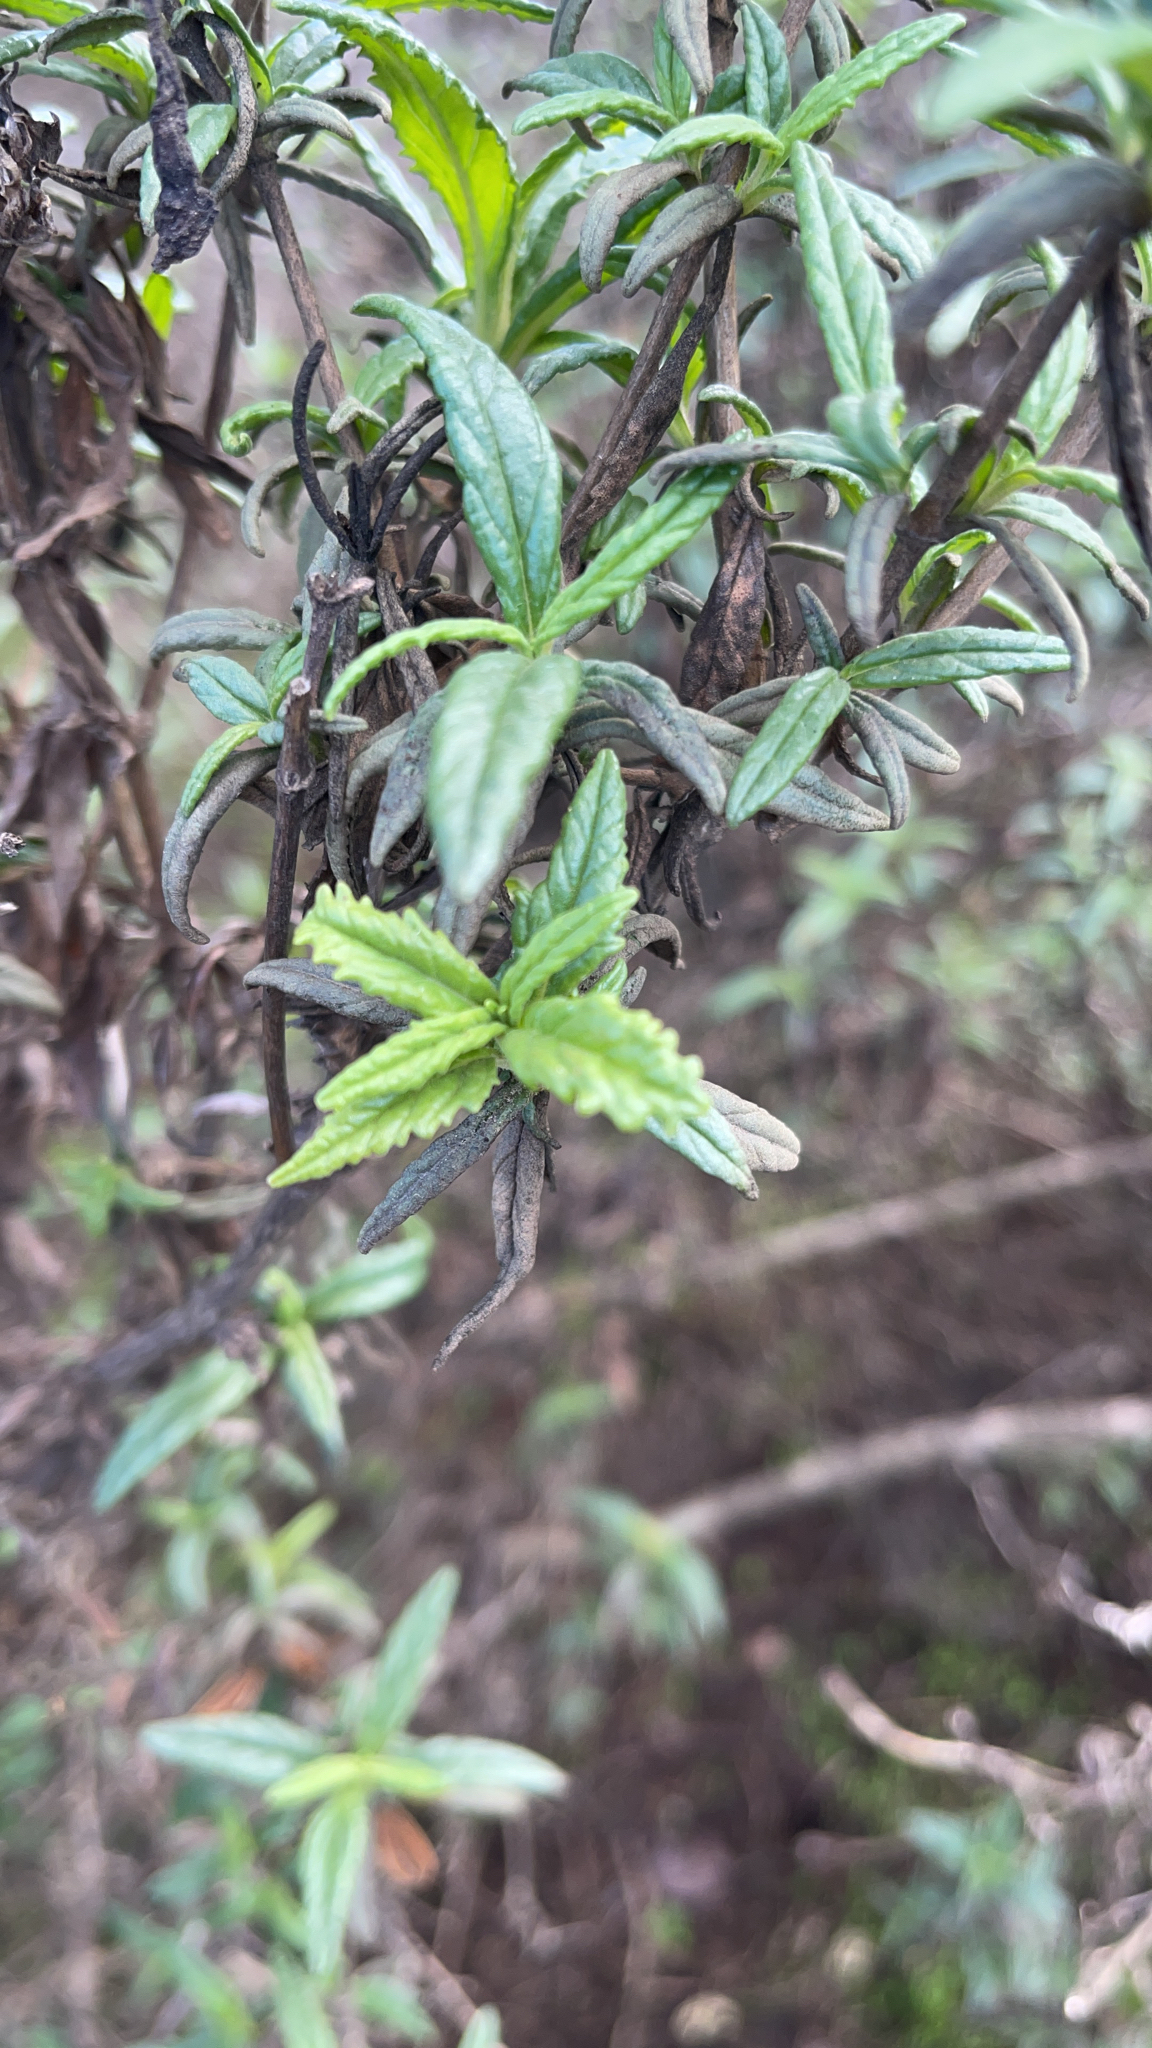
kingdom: Plantae
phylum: Tracheophyta
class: Magnoliopsida
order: Lamiales
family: Phrymaceae
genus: Diplacus
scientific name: Diplacus aurantiacus
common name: Bush monkey-flower
